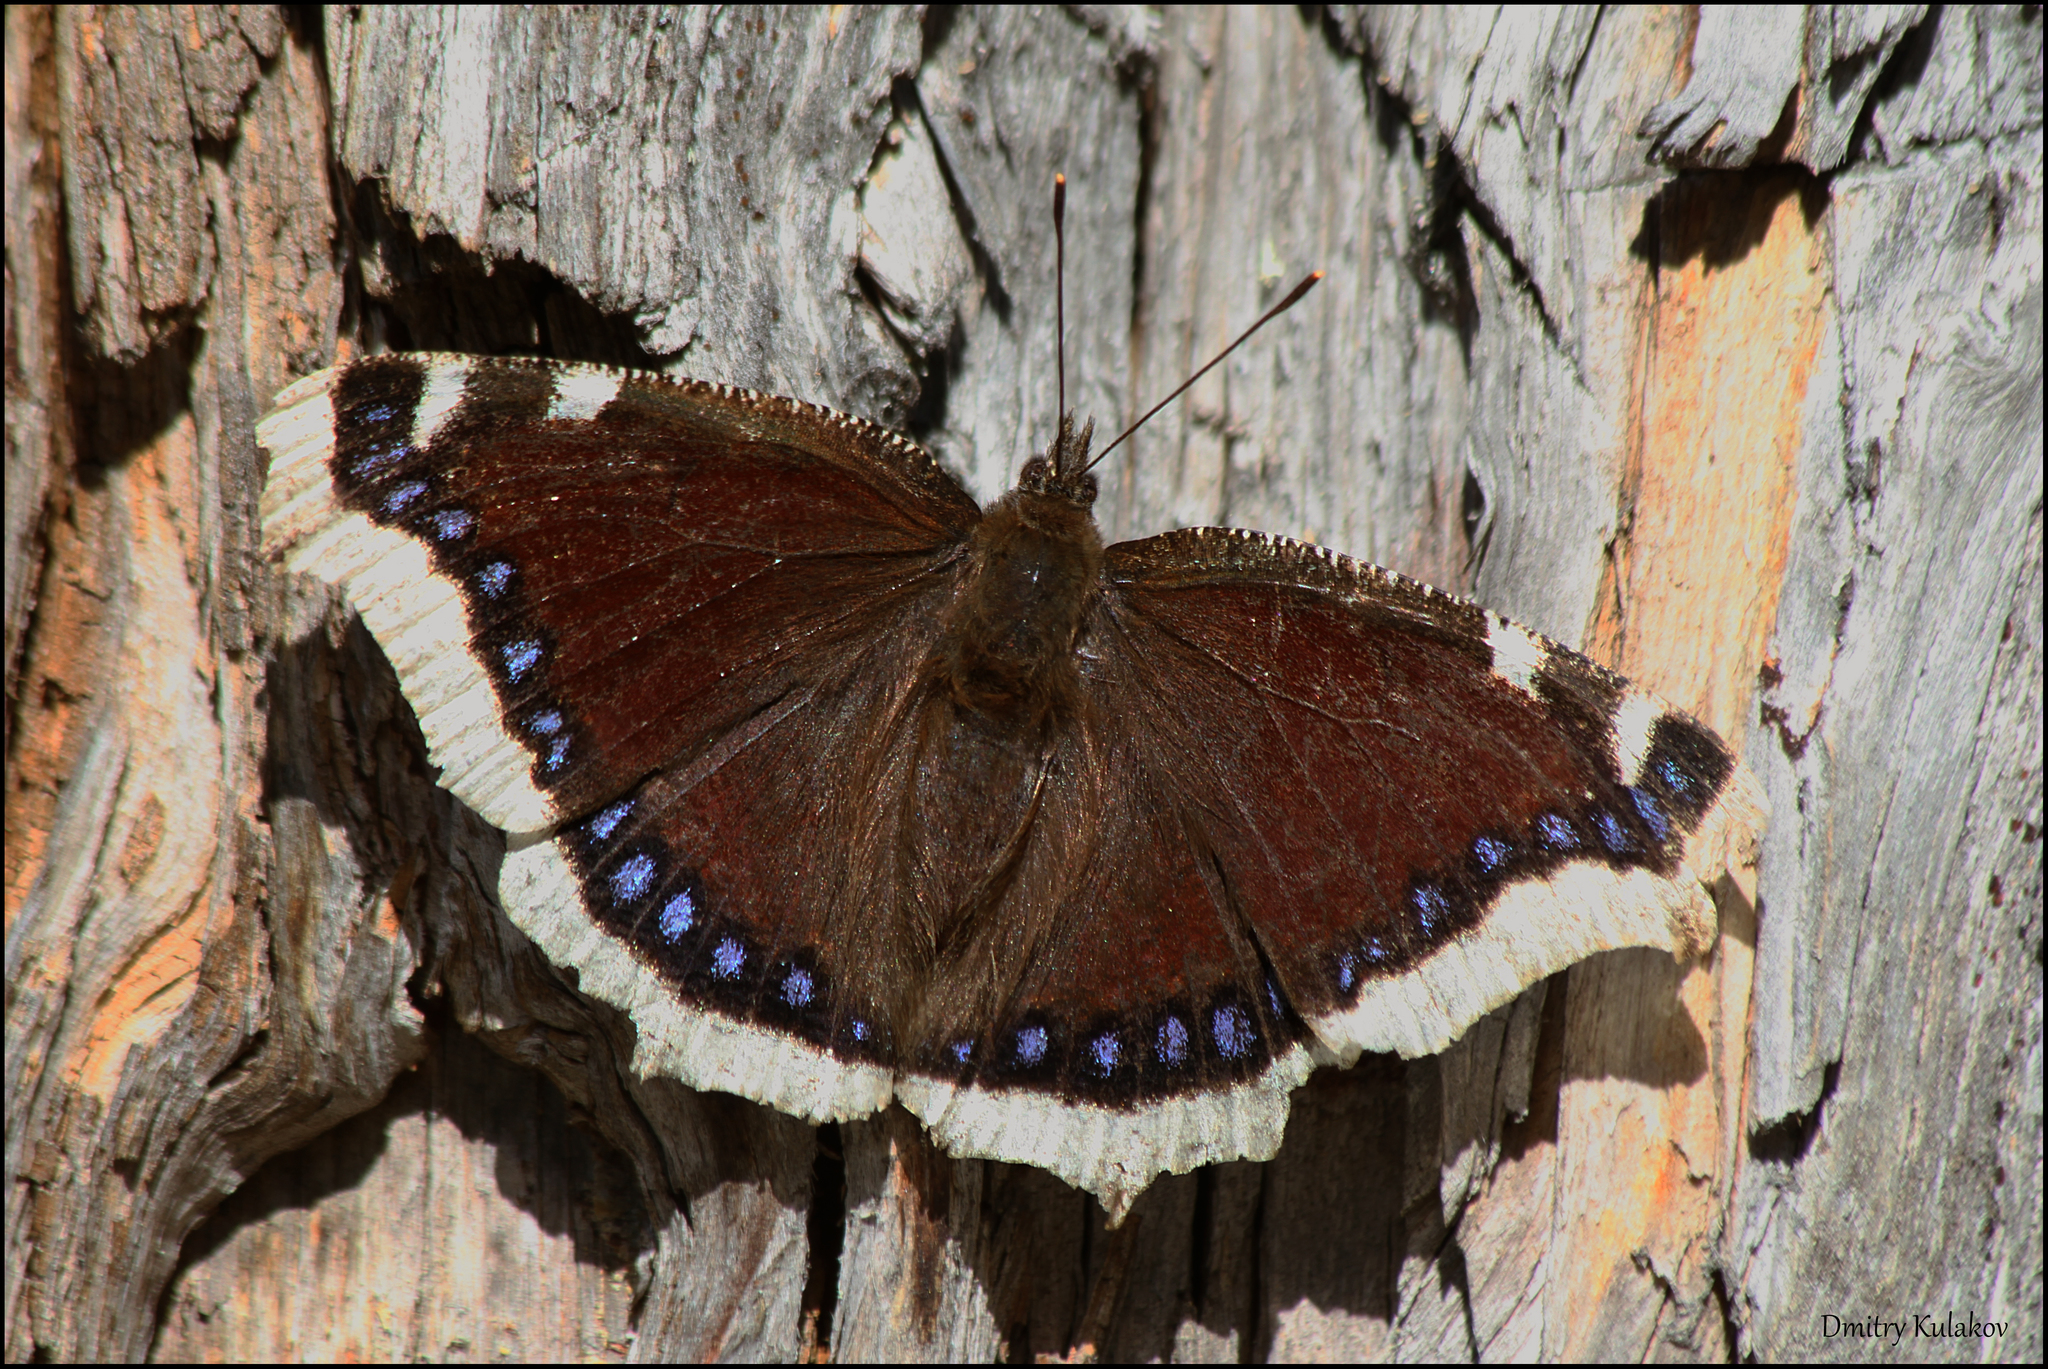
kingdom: Animalia
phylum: Arthropoda
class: Insecta
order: Lepidoptera
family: Nymphalidae
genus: Nymphalis
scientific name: Nymphalis antiopa
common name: Camberwell beauty
